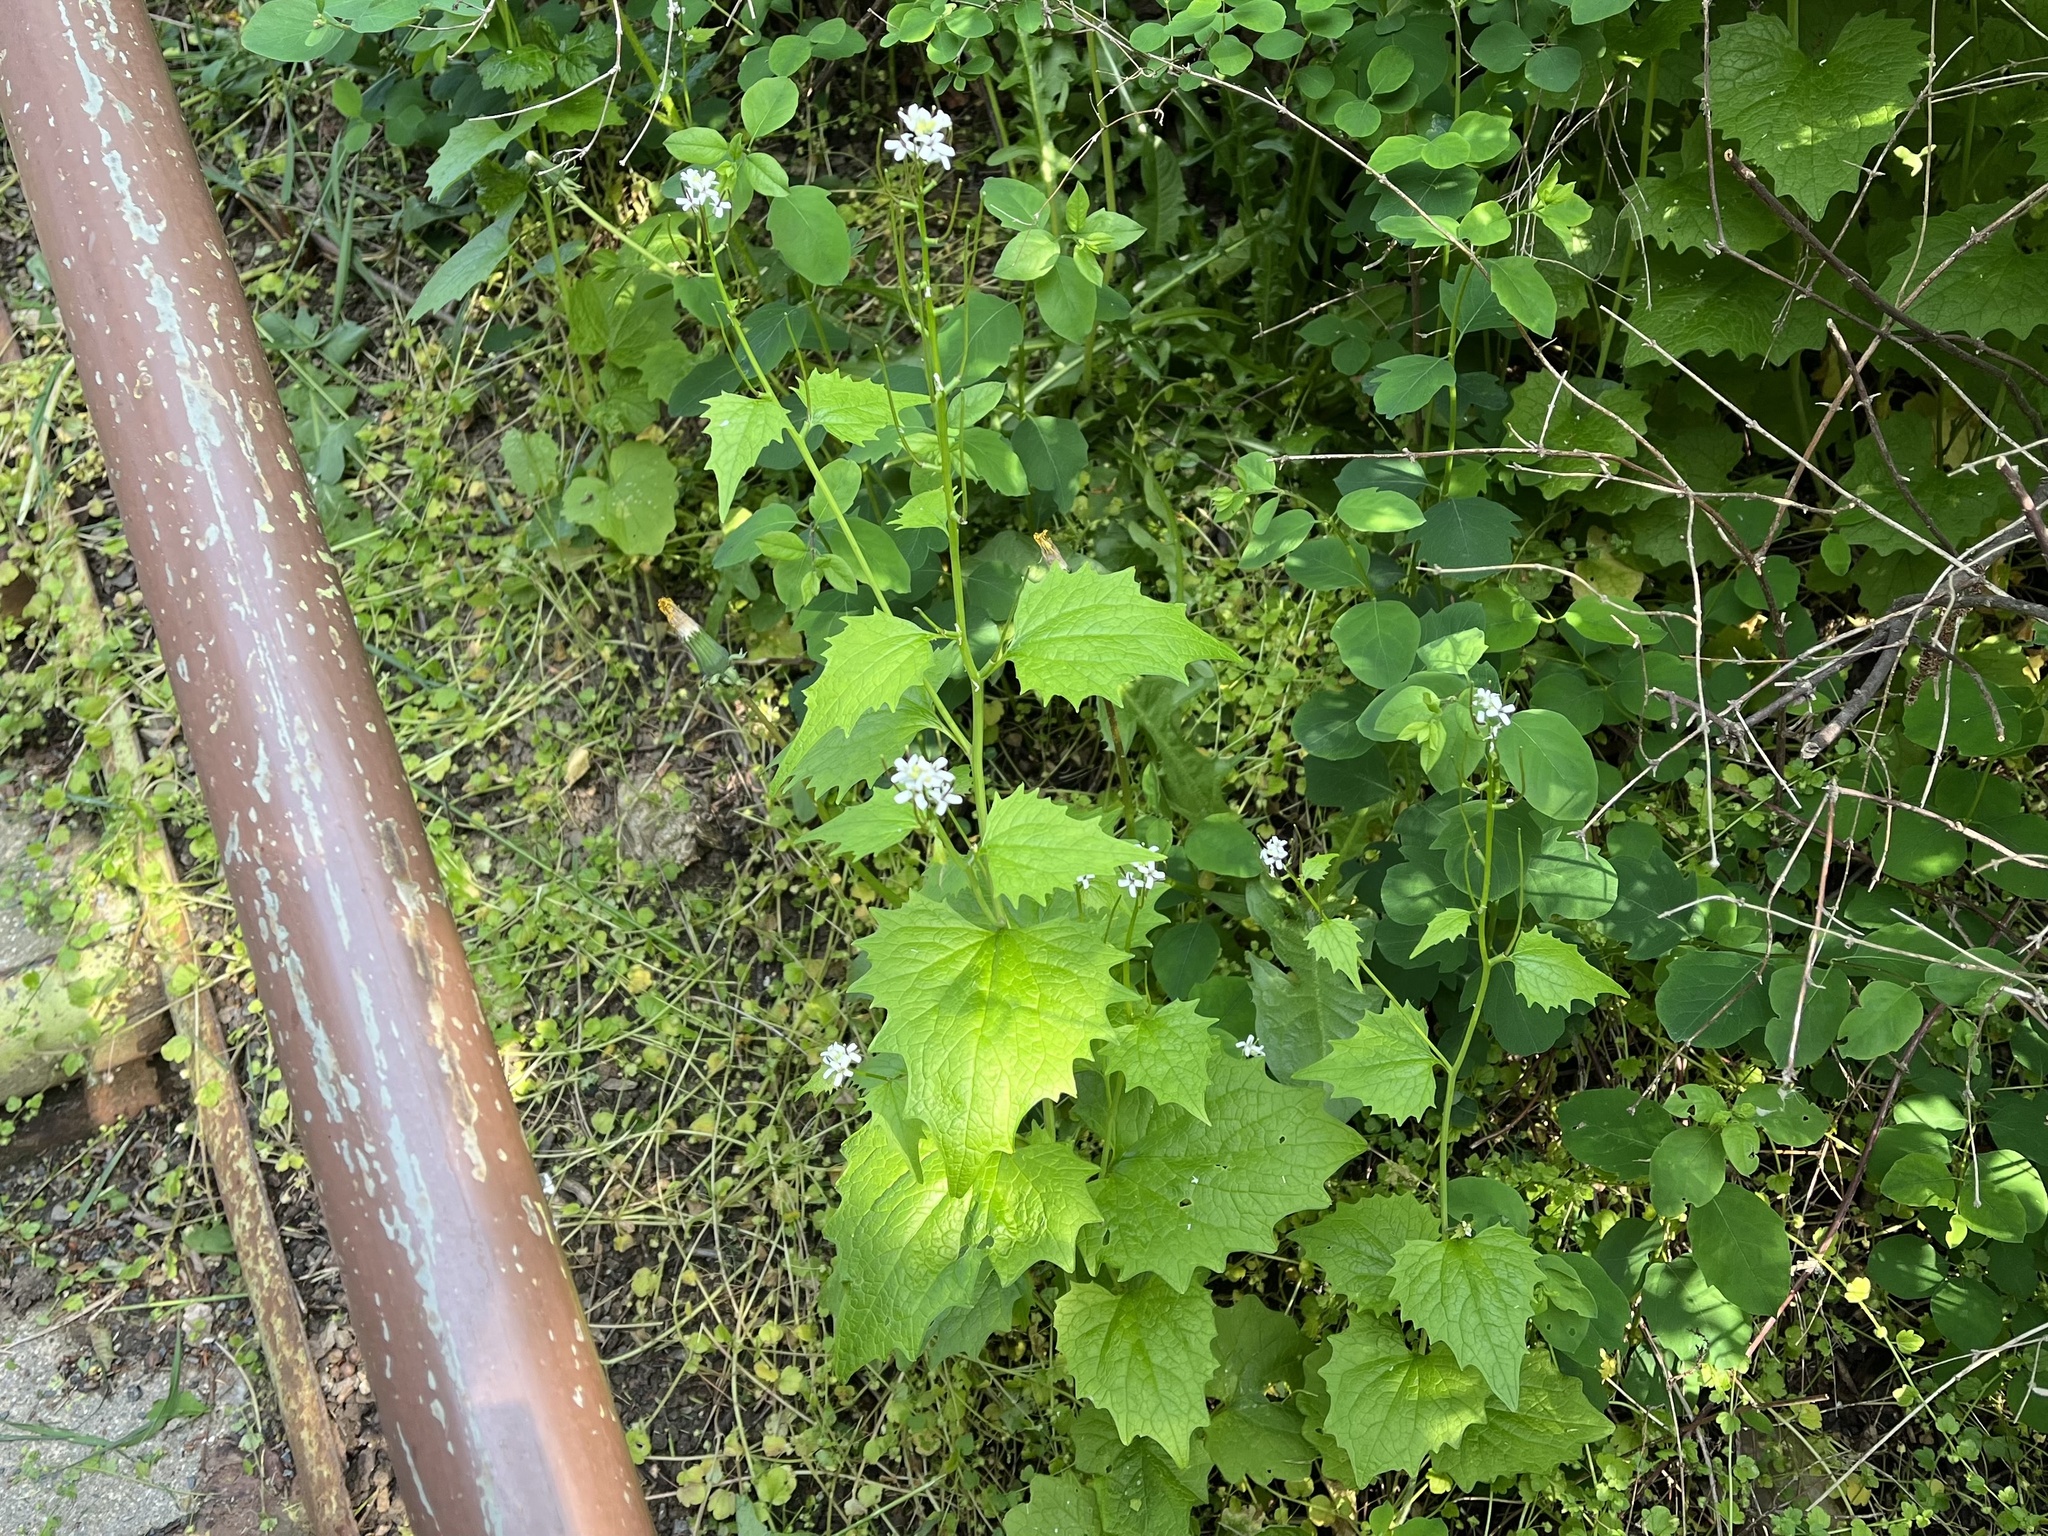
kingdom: Plantae
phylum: Tracheophyta
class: Magnoliopsida
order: Brassicales
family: Brassicaceae
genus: Alliaria
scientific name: Alliaria petiolata
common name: Garlic mustard
